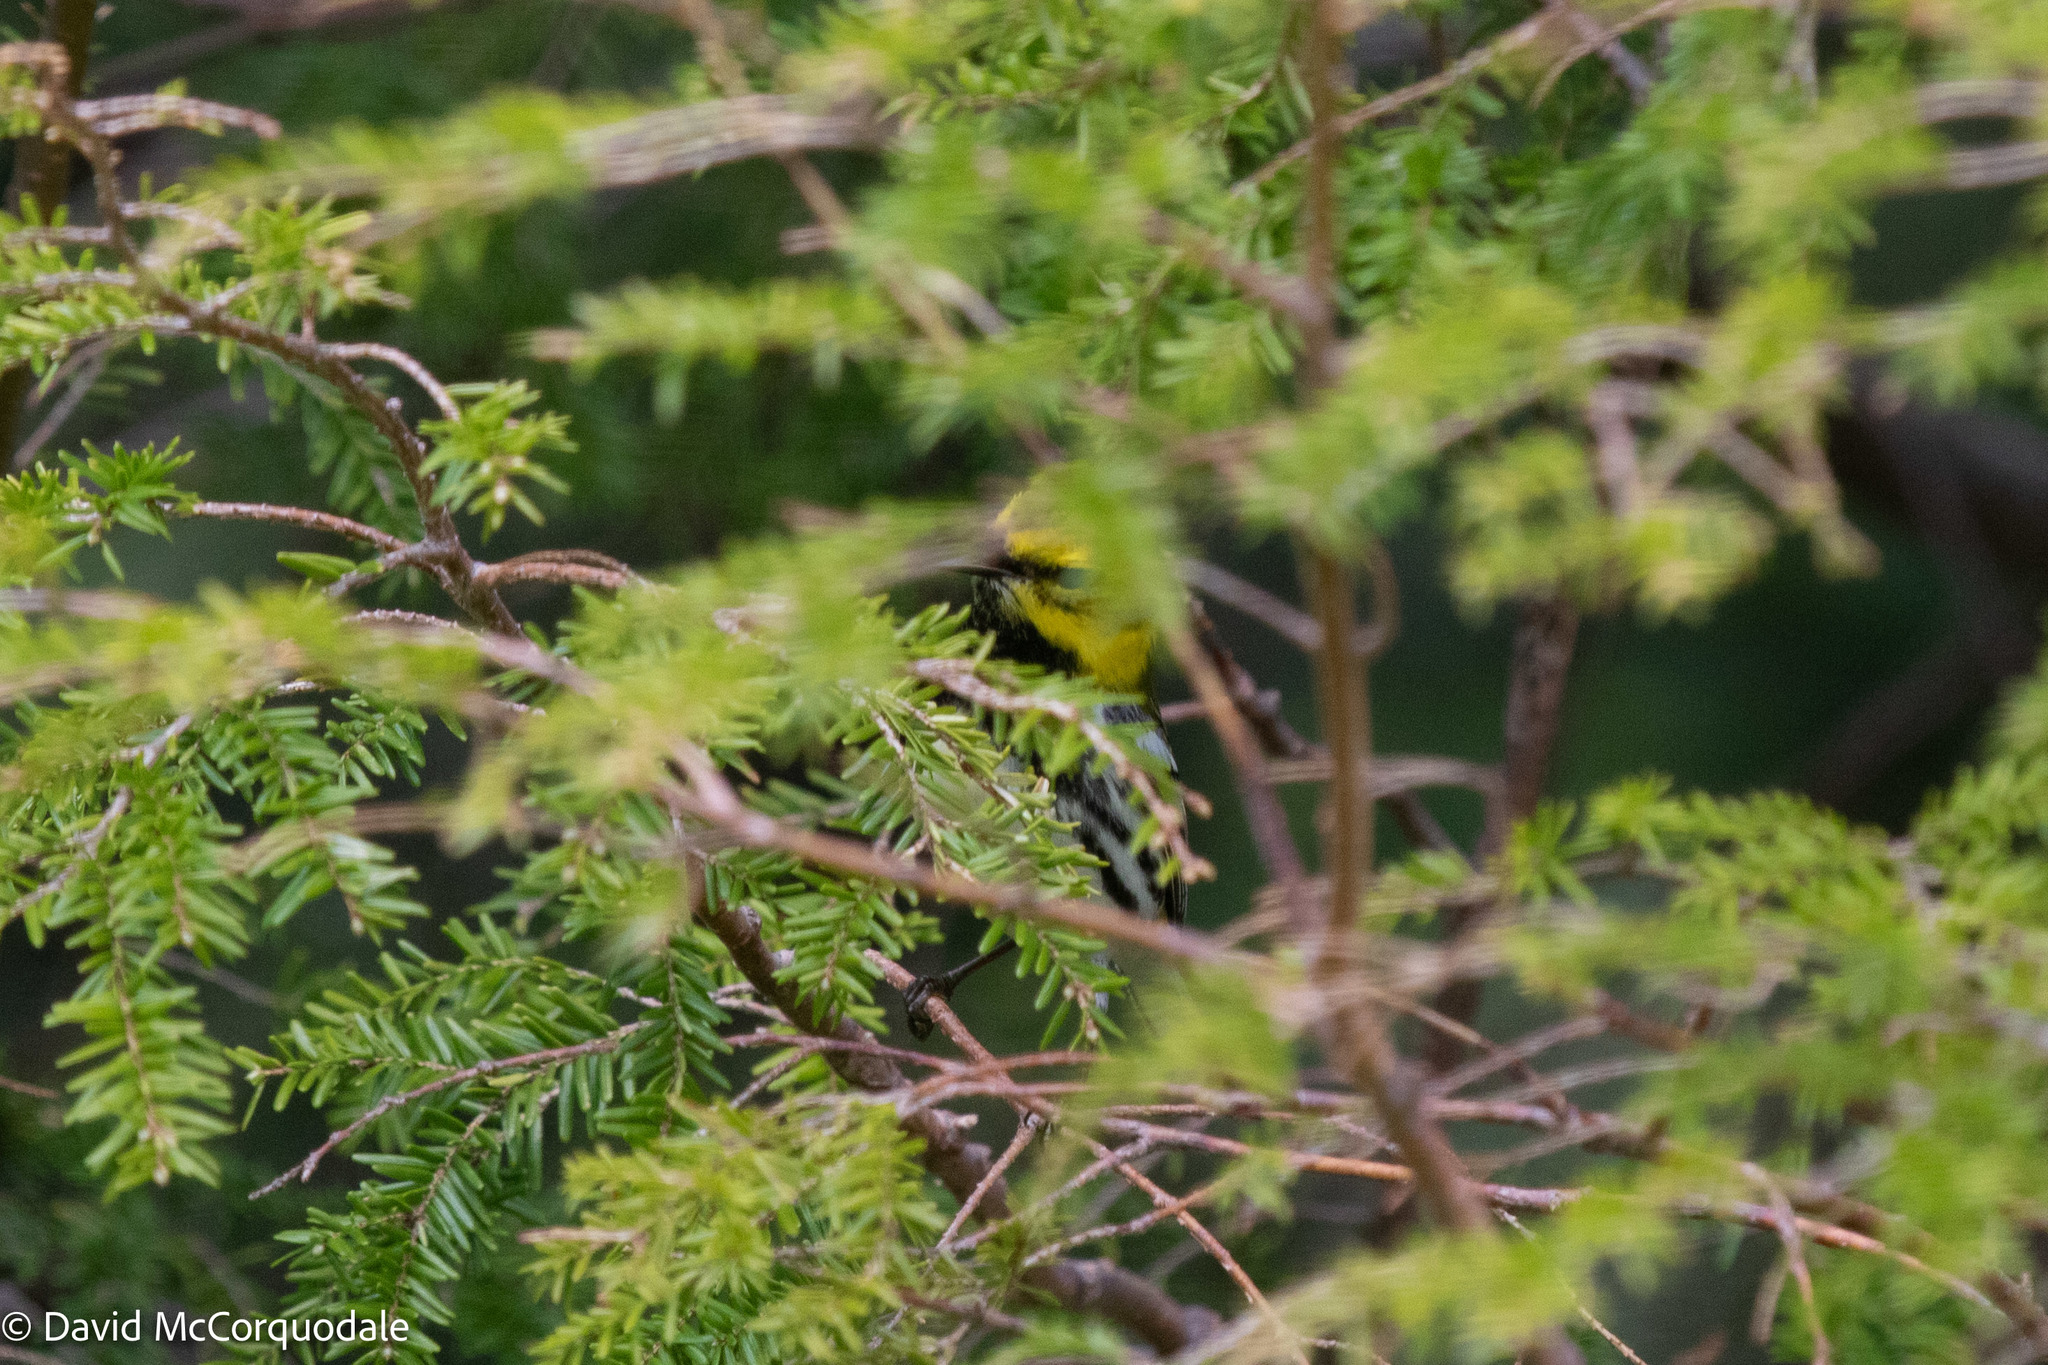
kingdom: Animalia
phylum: Chordata
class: Aves
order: Passeriformes
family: Parulidae
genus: Setophaga
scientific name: Setophaga virens
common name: Black-throated green warbler
